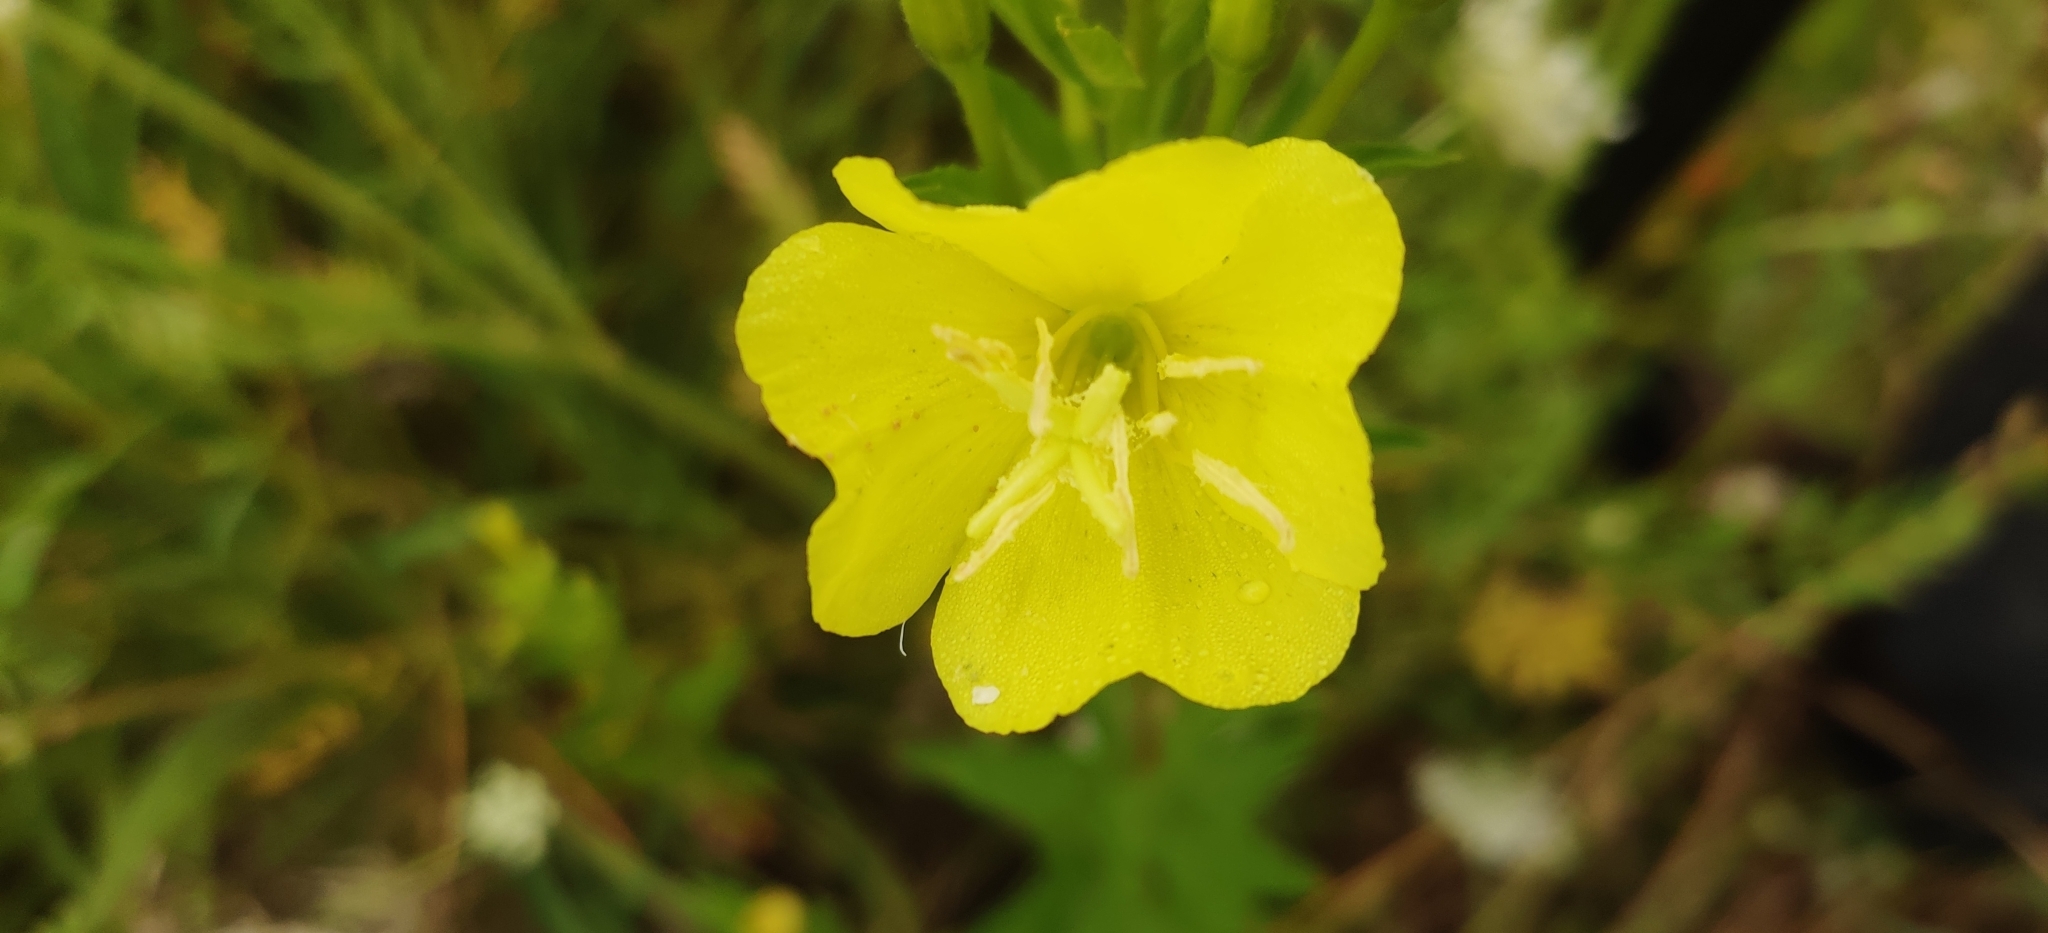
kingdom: Plantae
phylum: Tracheophyta
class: Magnoliopsida
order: Myrtales
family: Onagraceae
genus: Oenothera
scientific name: Oenothera biennis
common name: Common evening-primrose
